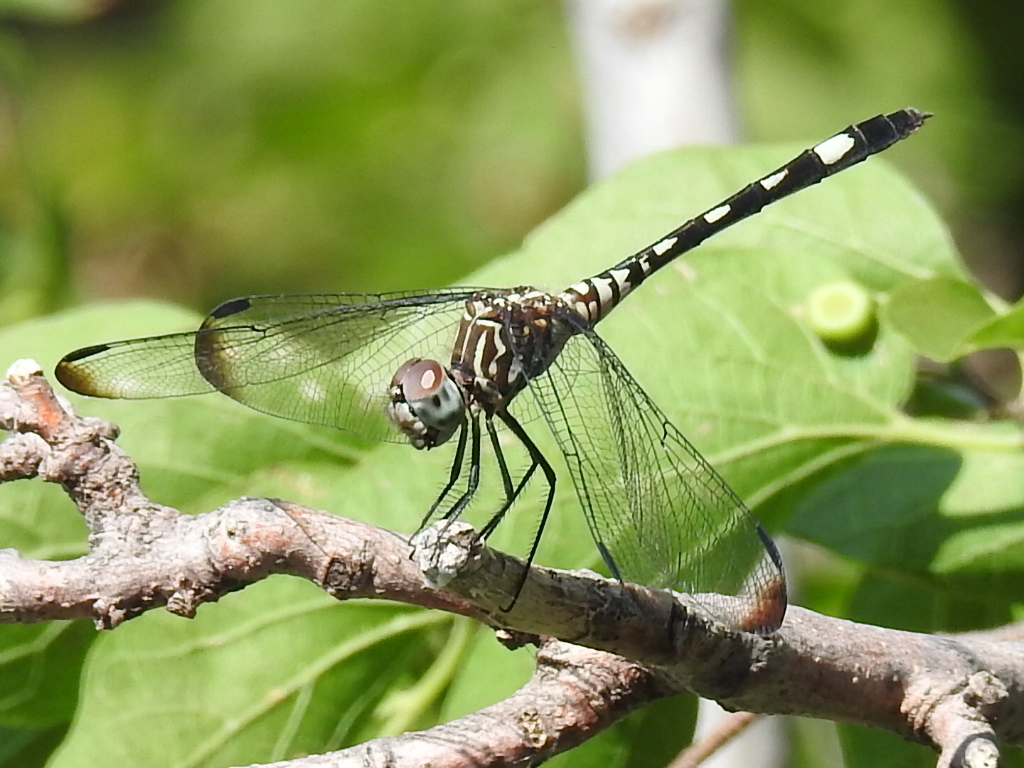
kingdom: Animalia
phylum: Arthropoda
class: Insecta
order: Odonata
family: Libellulidae
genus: Dythemis
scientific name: Dythemis velox
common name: Swift setwing
